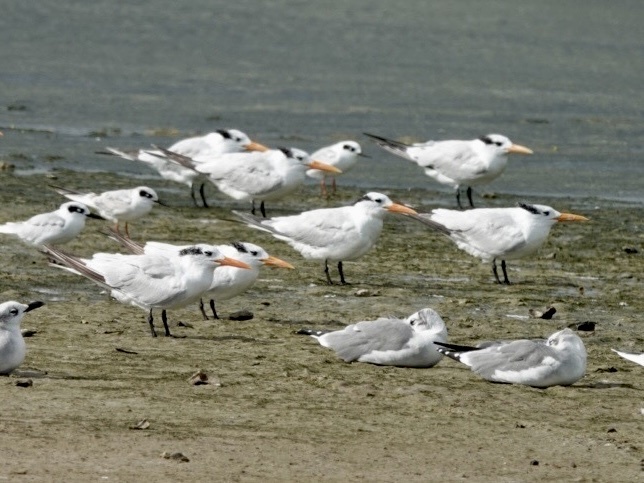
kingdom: Animalia
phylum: Chordata
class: Aves
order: Charadriiformes
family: Laridae
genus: Thalasseus
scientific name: Thalasseus maximus
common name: Royal tern
